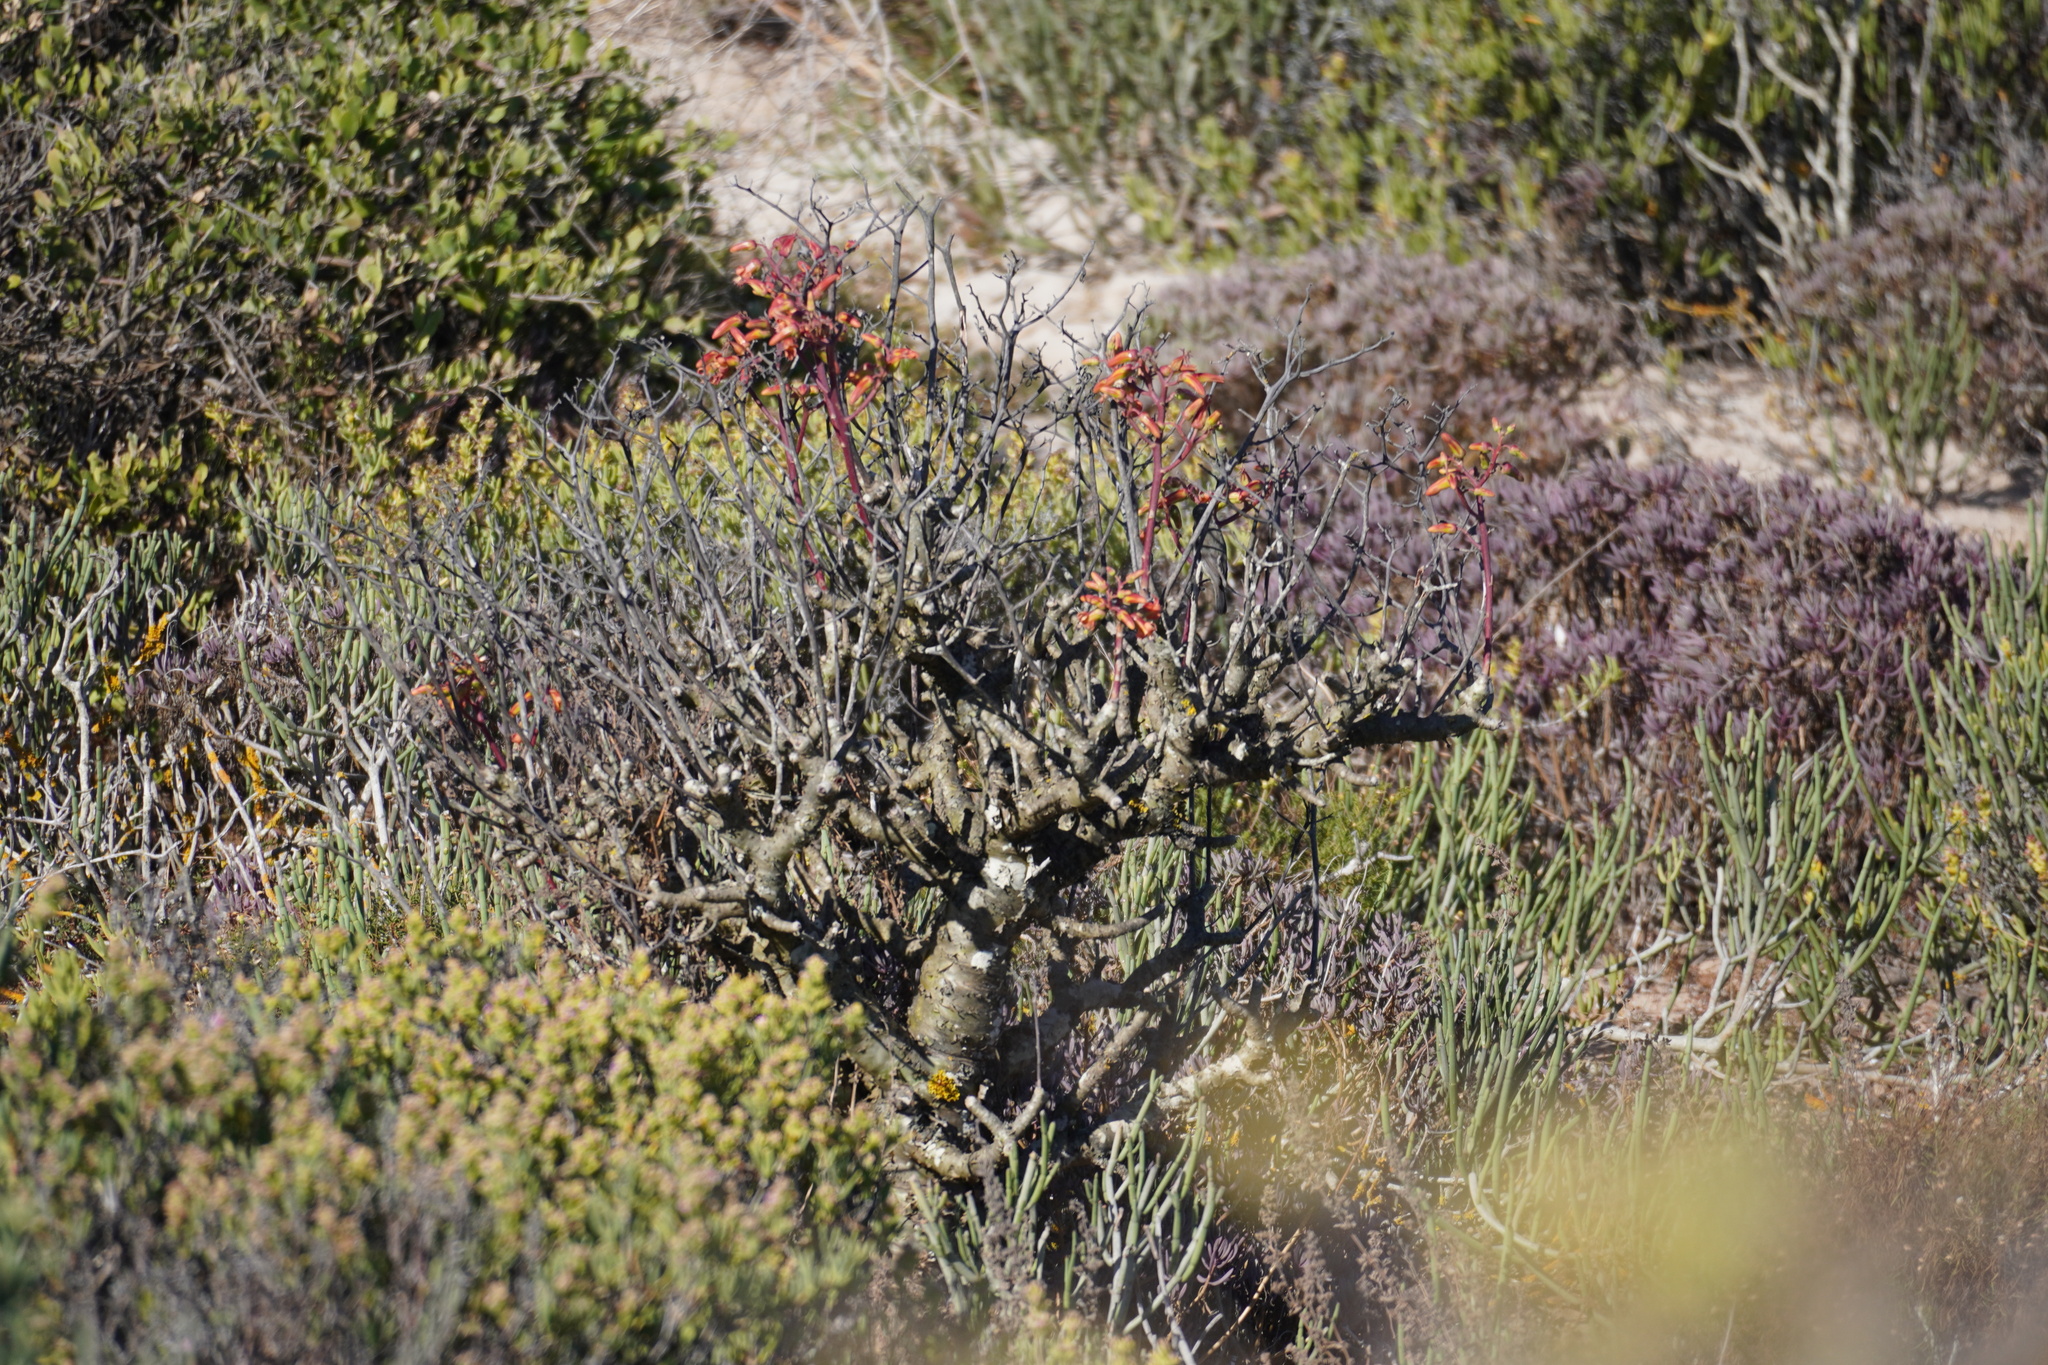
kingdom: Plantae
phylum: Tracheophyta
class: Magnoliopsida
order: Saxifragales
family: Crassulaceae
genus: Tylecodon
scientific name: Tylecodon grandiflorus
